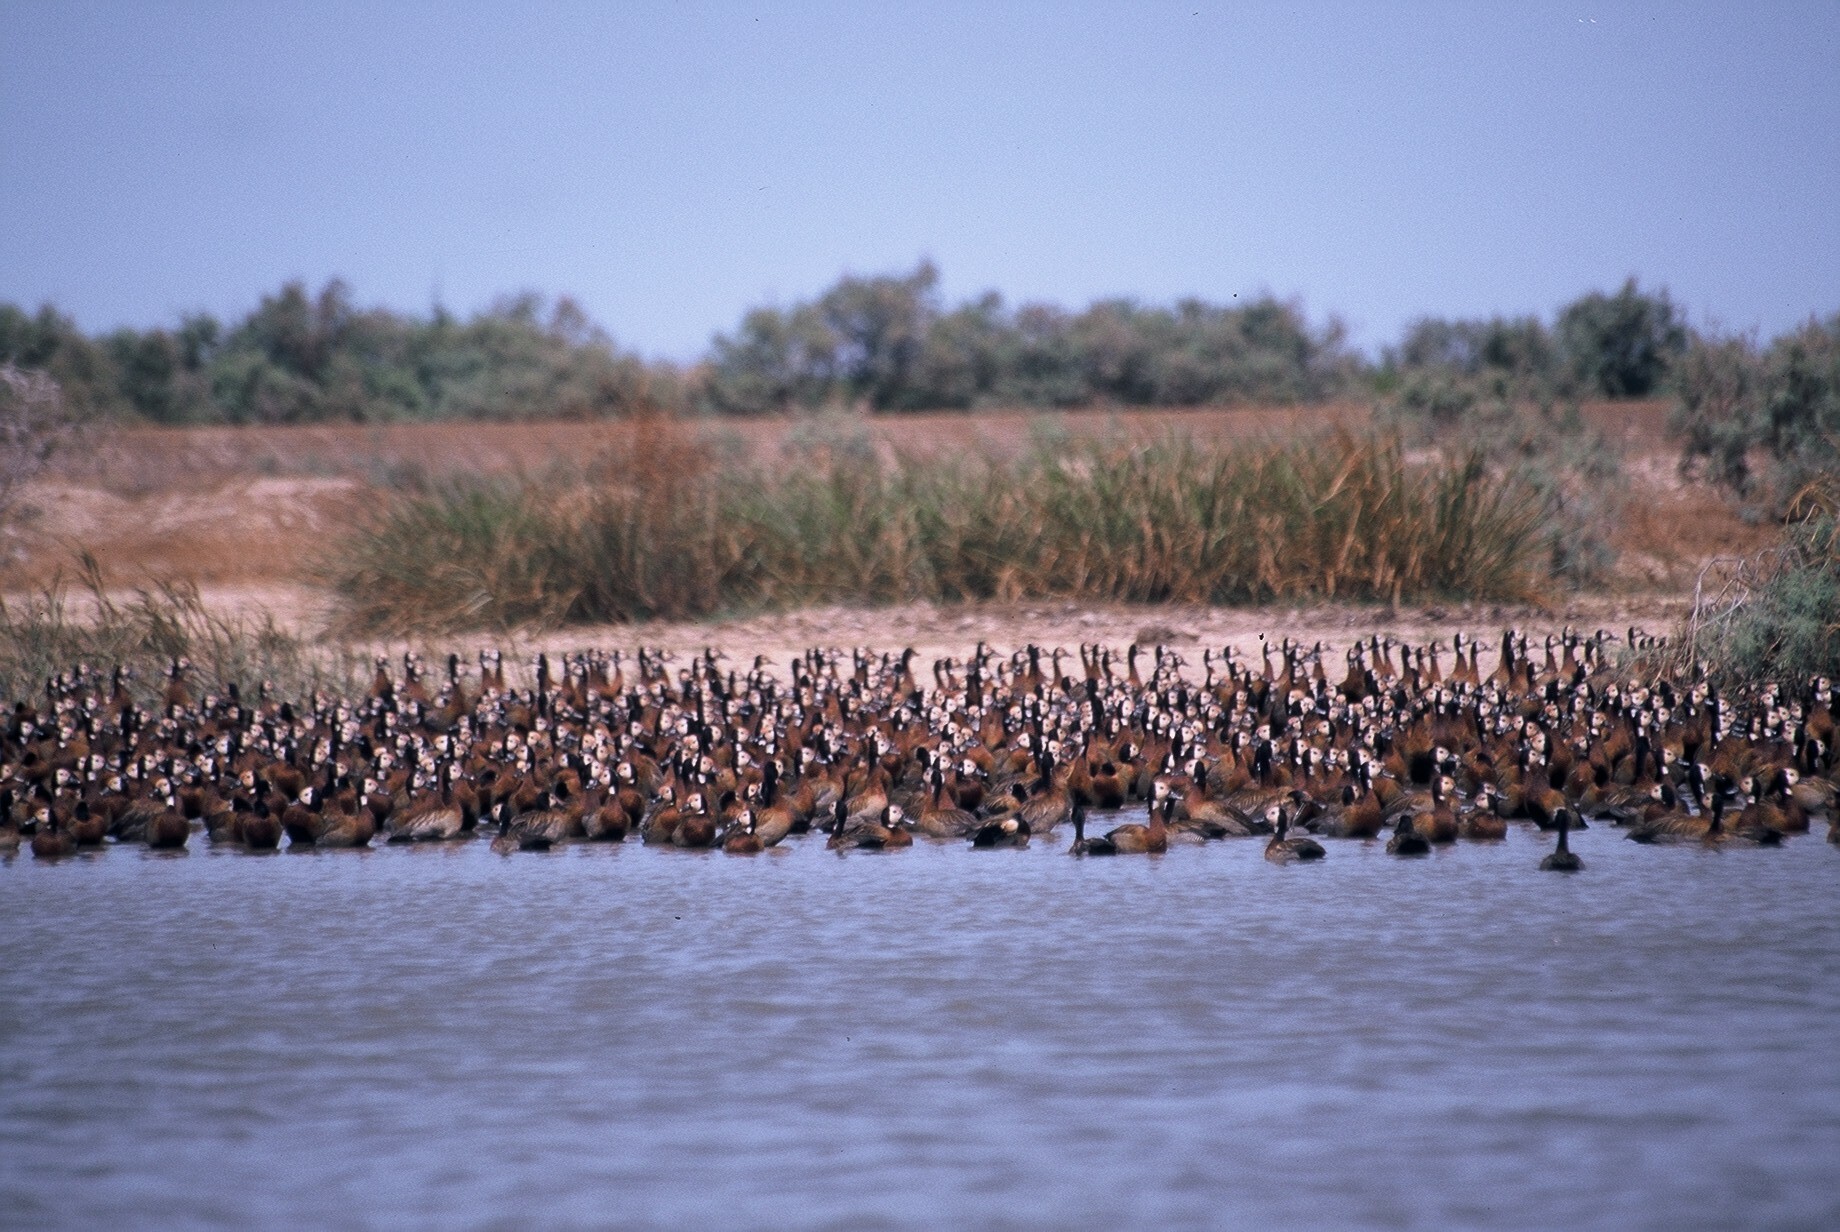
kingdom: Animalia
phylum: Chordata
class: Aves
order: Anseriformes
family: Anatidae
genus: Dendrocygna
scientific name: Dendrocygna viduata
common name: White-faced whistling duck
